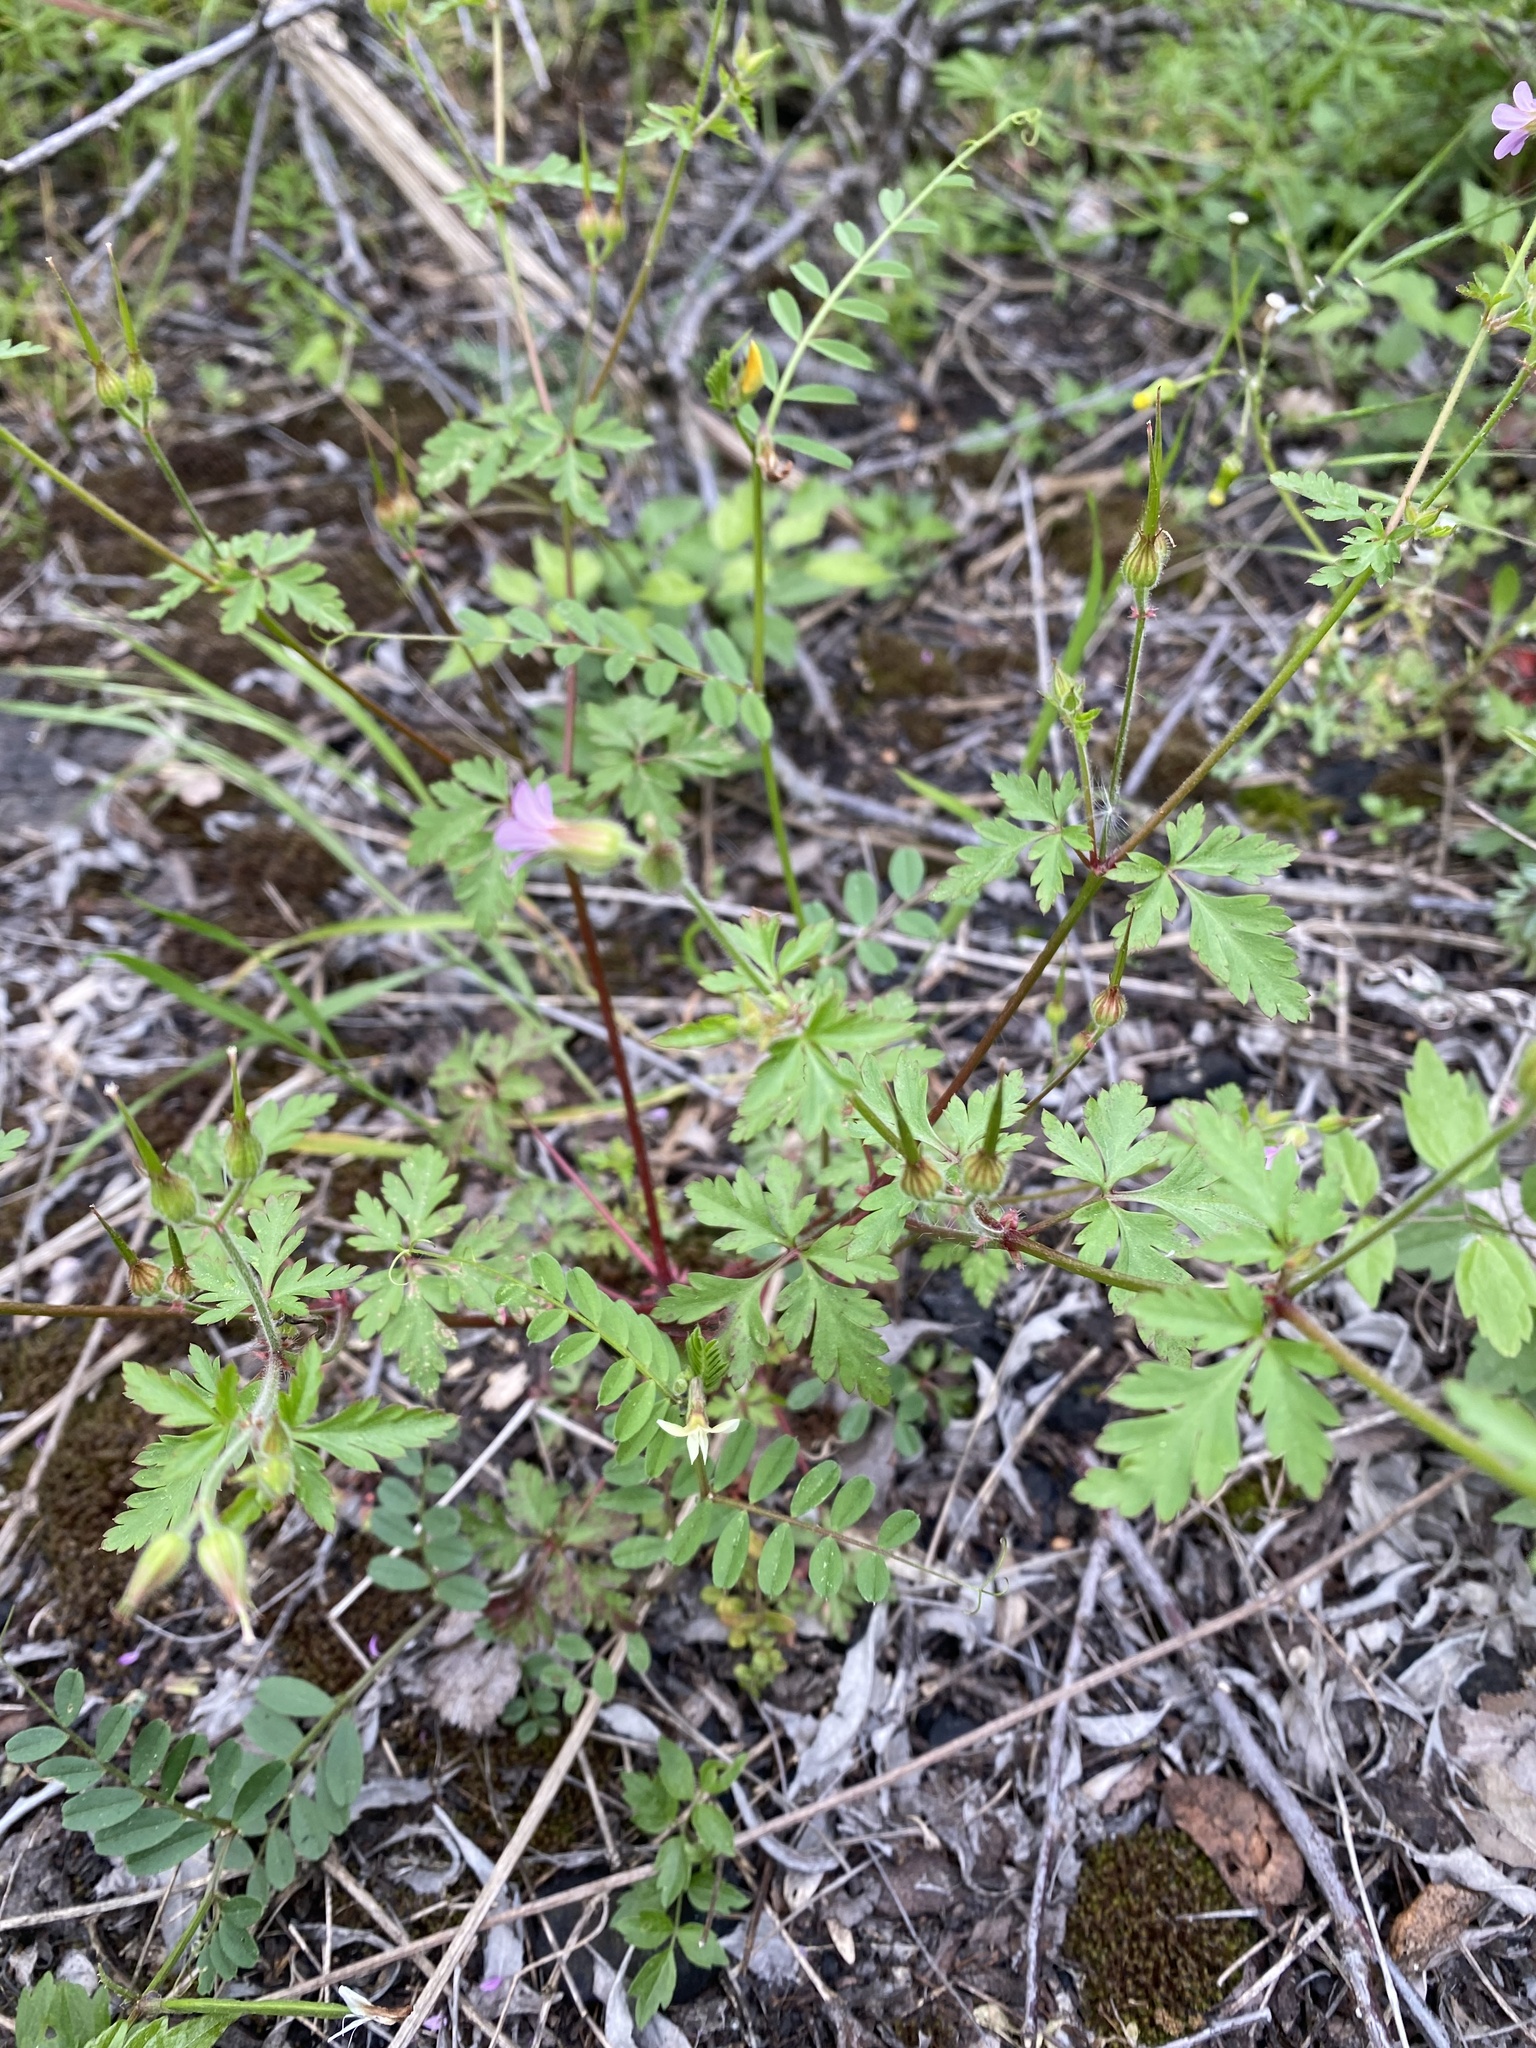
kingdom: Plantae
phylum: Tracheophyta
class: Magnoliopsida
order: Geraniales
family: Geraniaceae
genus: Geranium
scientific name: Geranium robertianum
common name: Herb-robert
